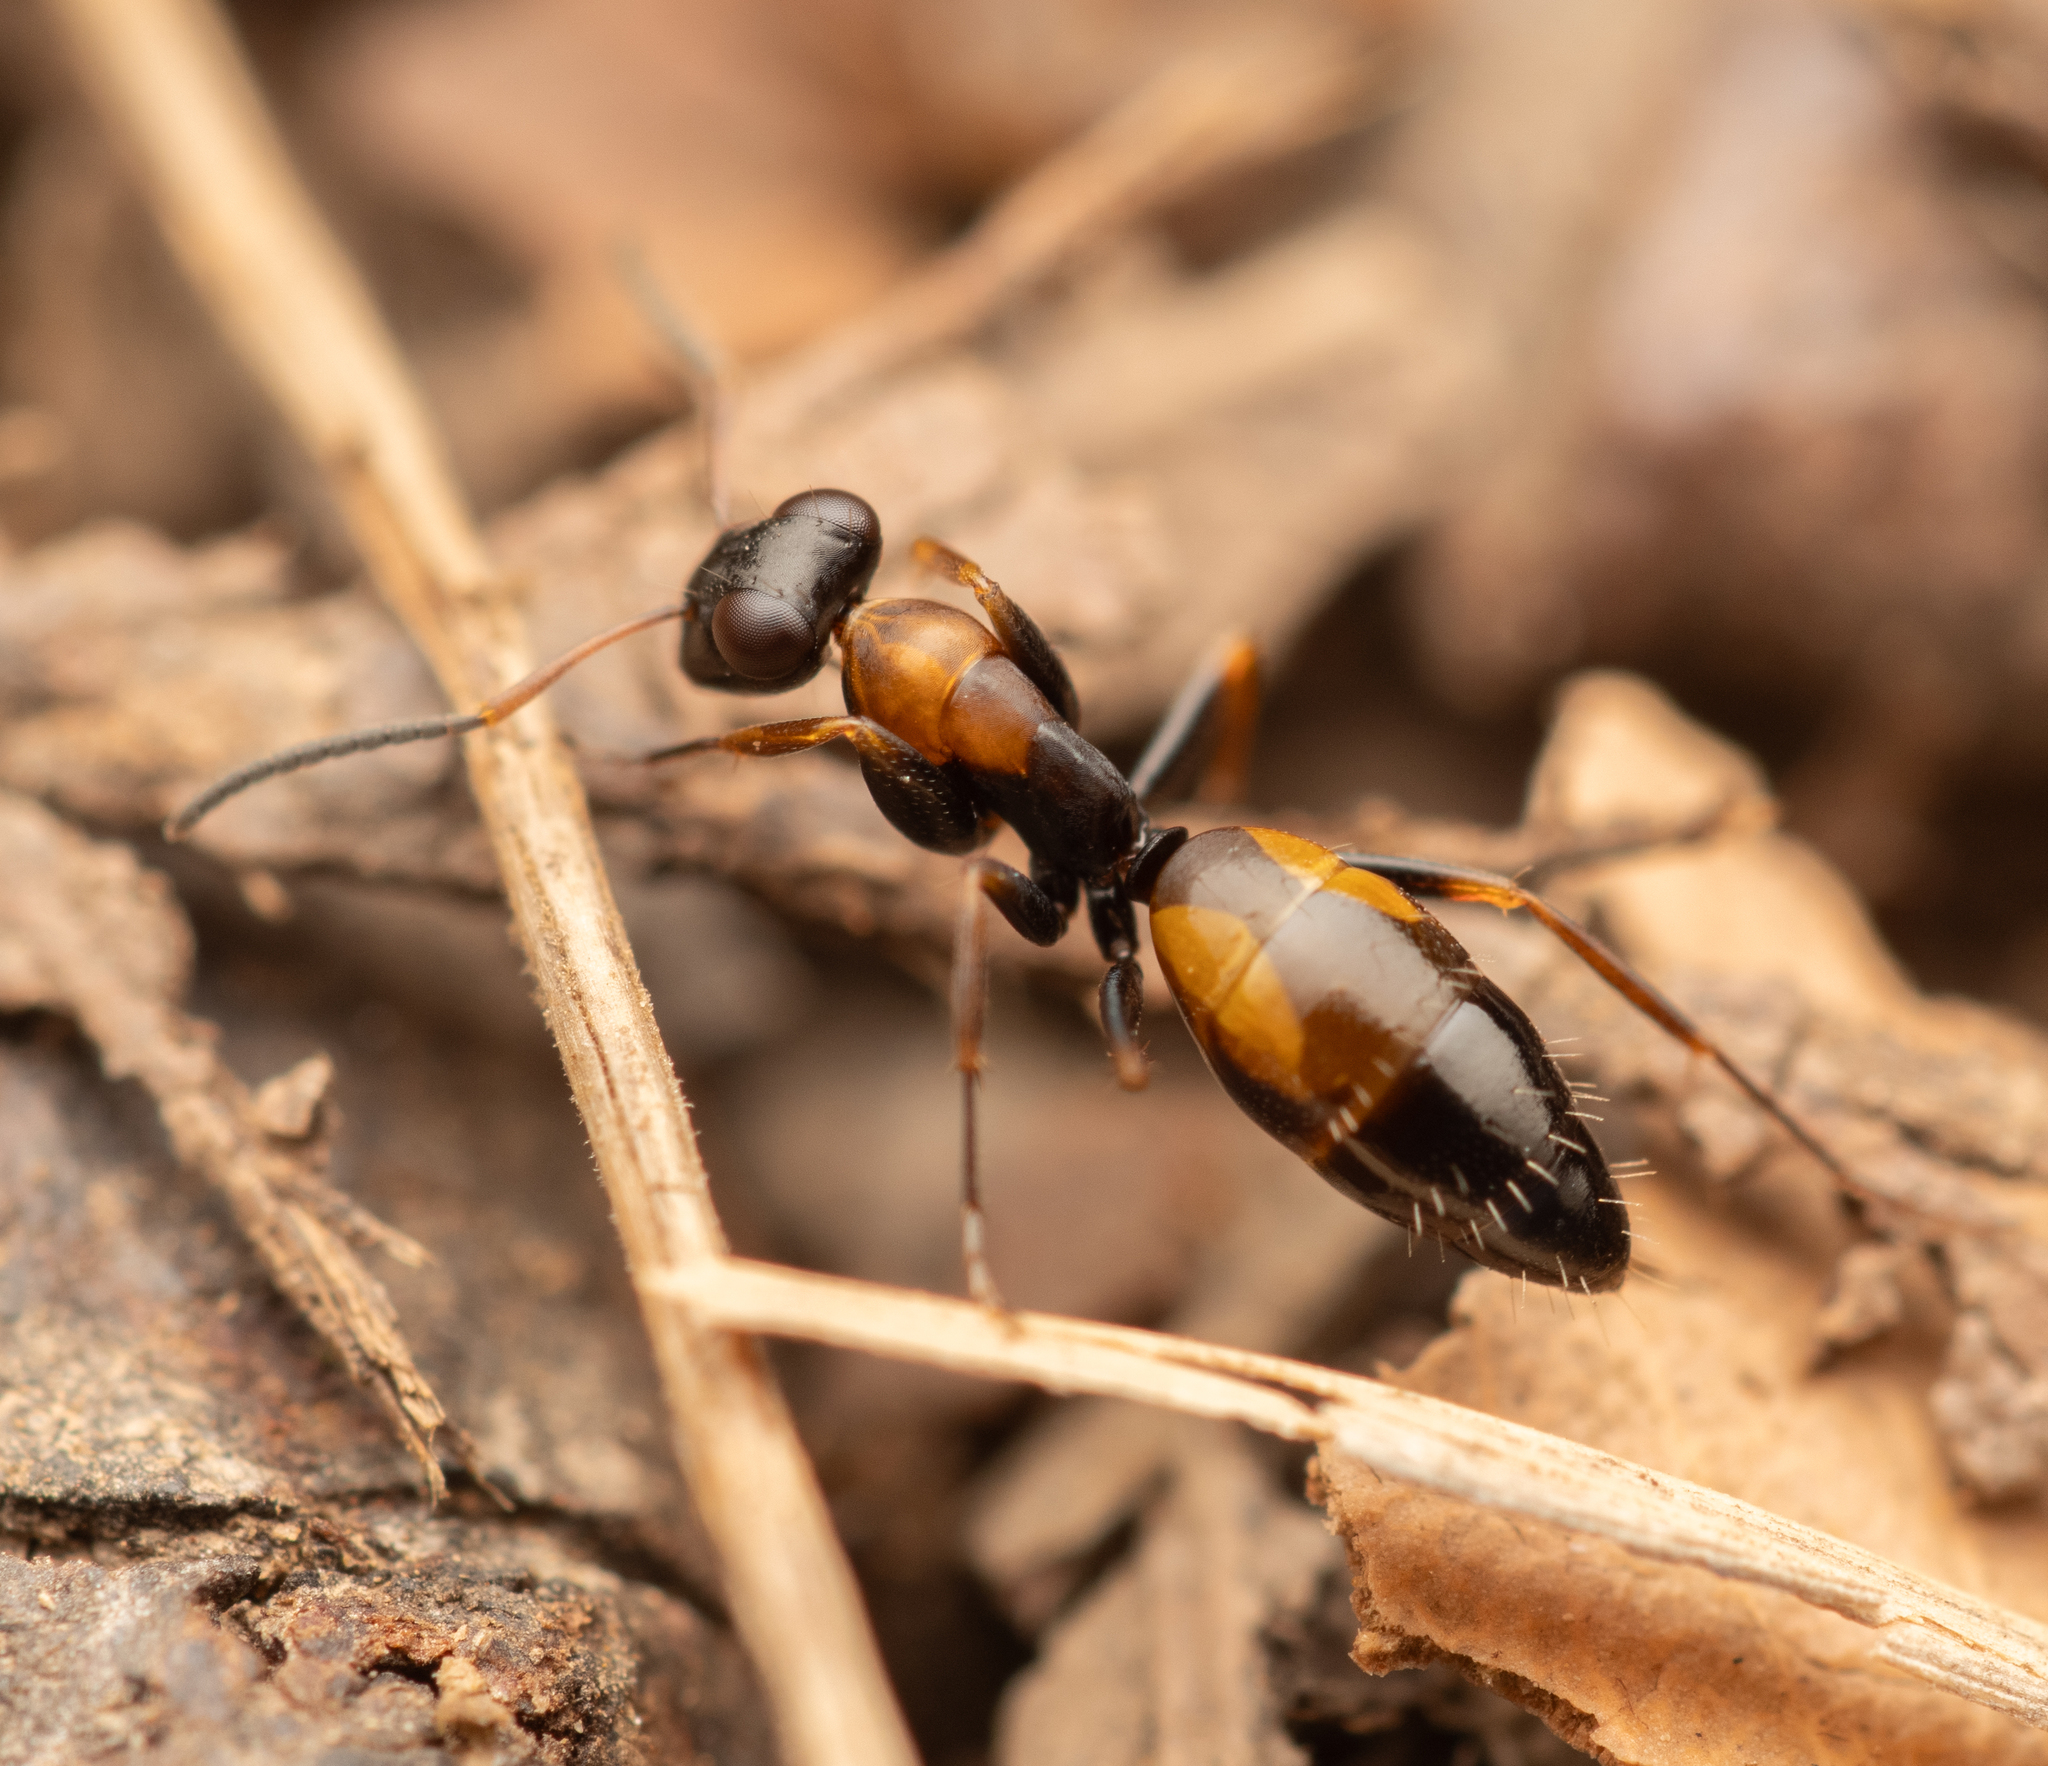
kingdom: Animalia
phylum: Arthropoda
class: Insecta
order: Hymenoptera
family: Formicidae
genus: Opisthopsis
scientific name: Opisthopsis pictus
